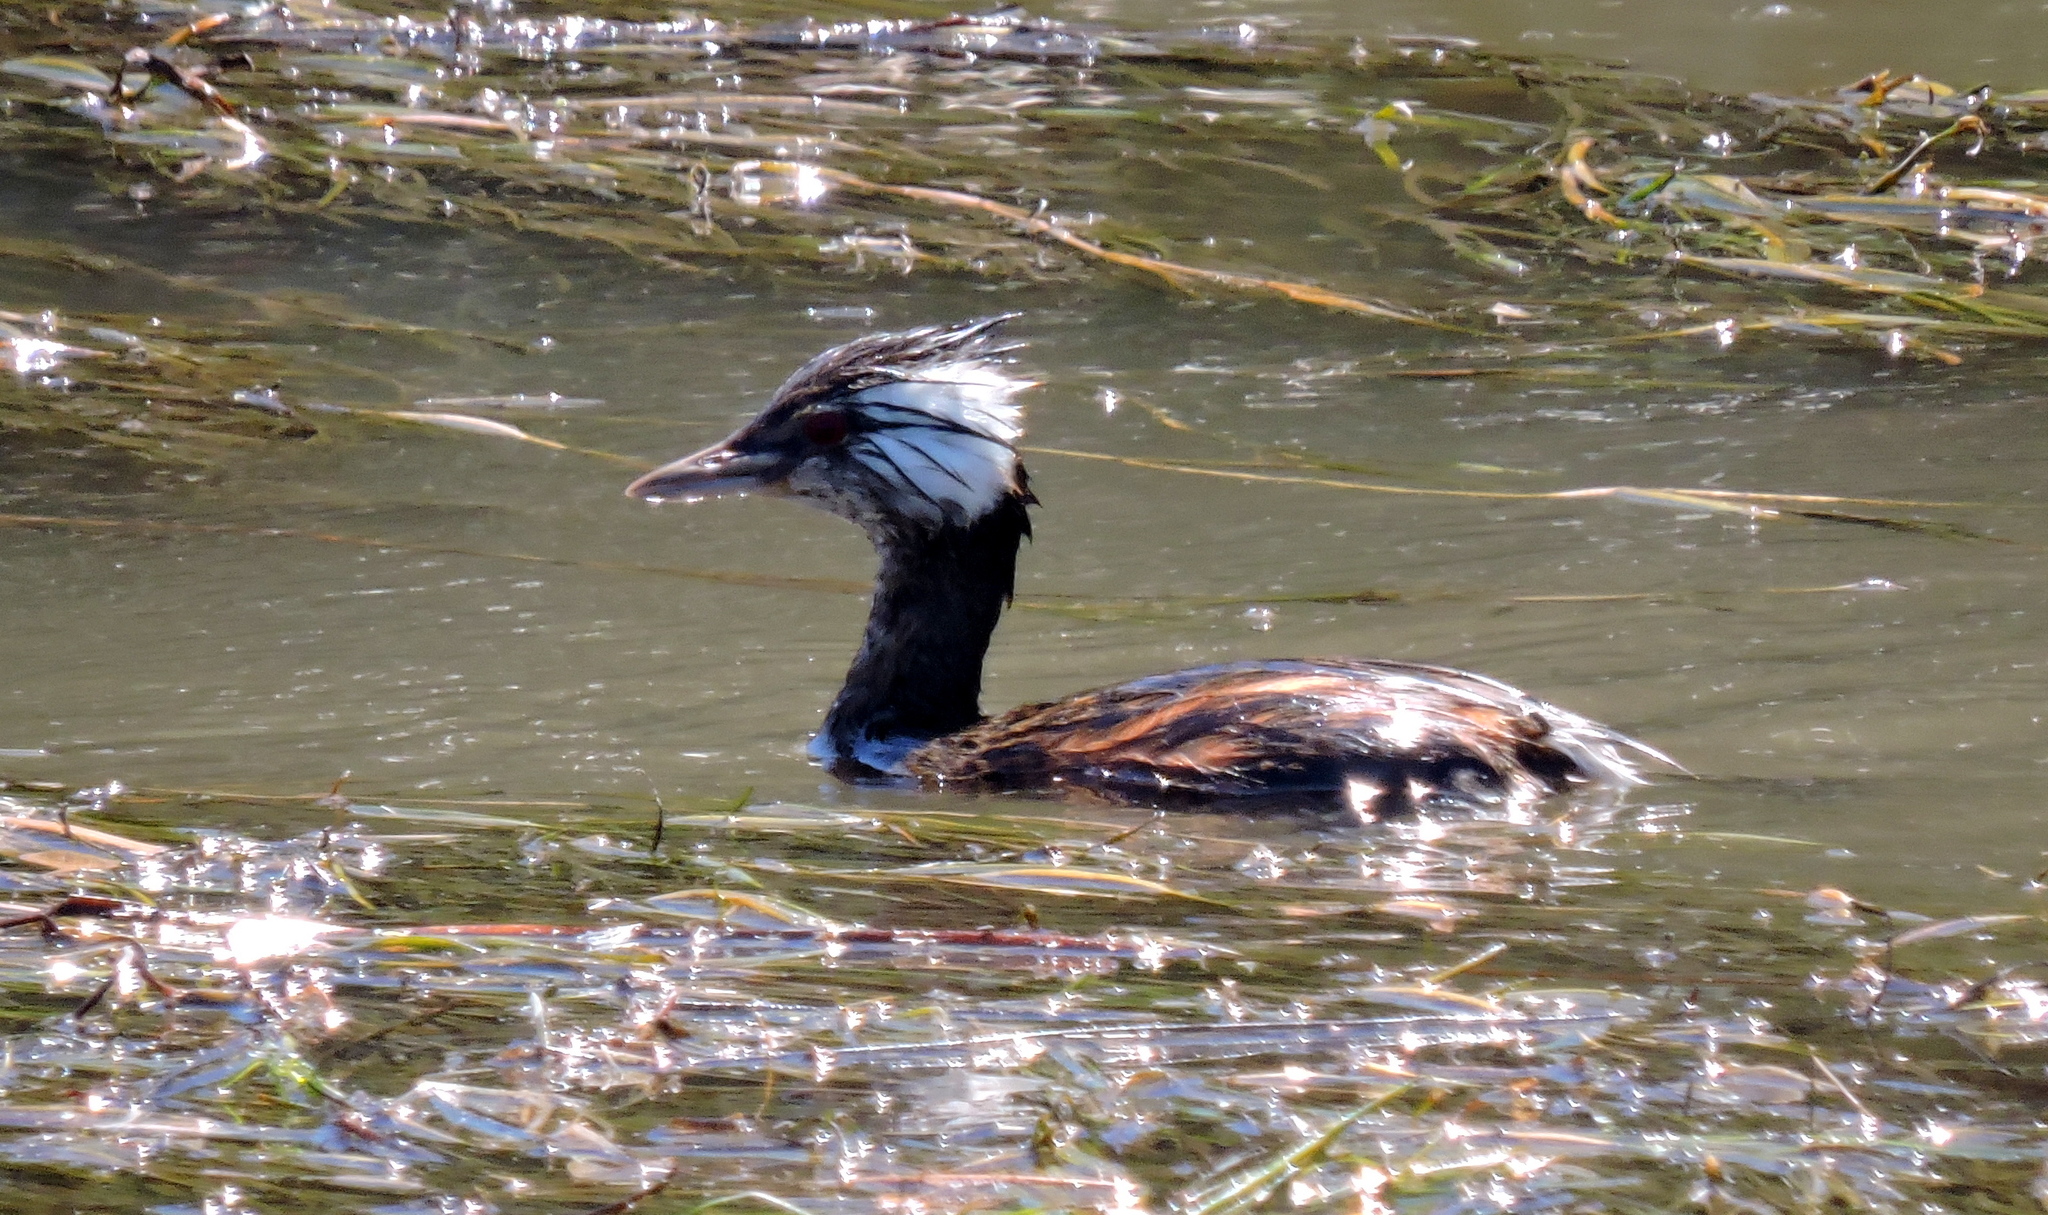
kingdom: Animalia
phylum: Chordata
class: Aves
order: Podicipediformes
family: Podicipedidae
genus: Rollandia
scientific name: Rollandia rolland
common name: White-tufted grebe
